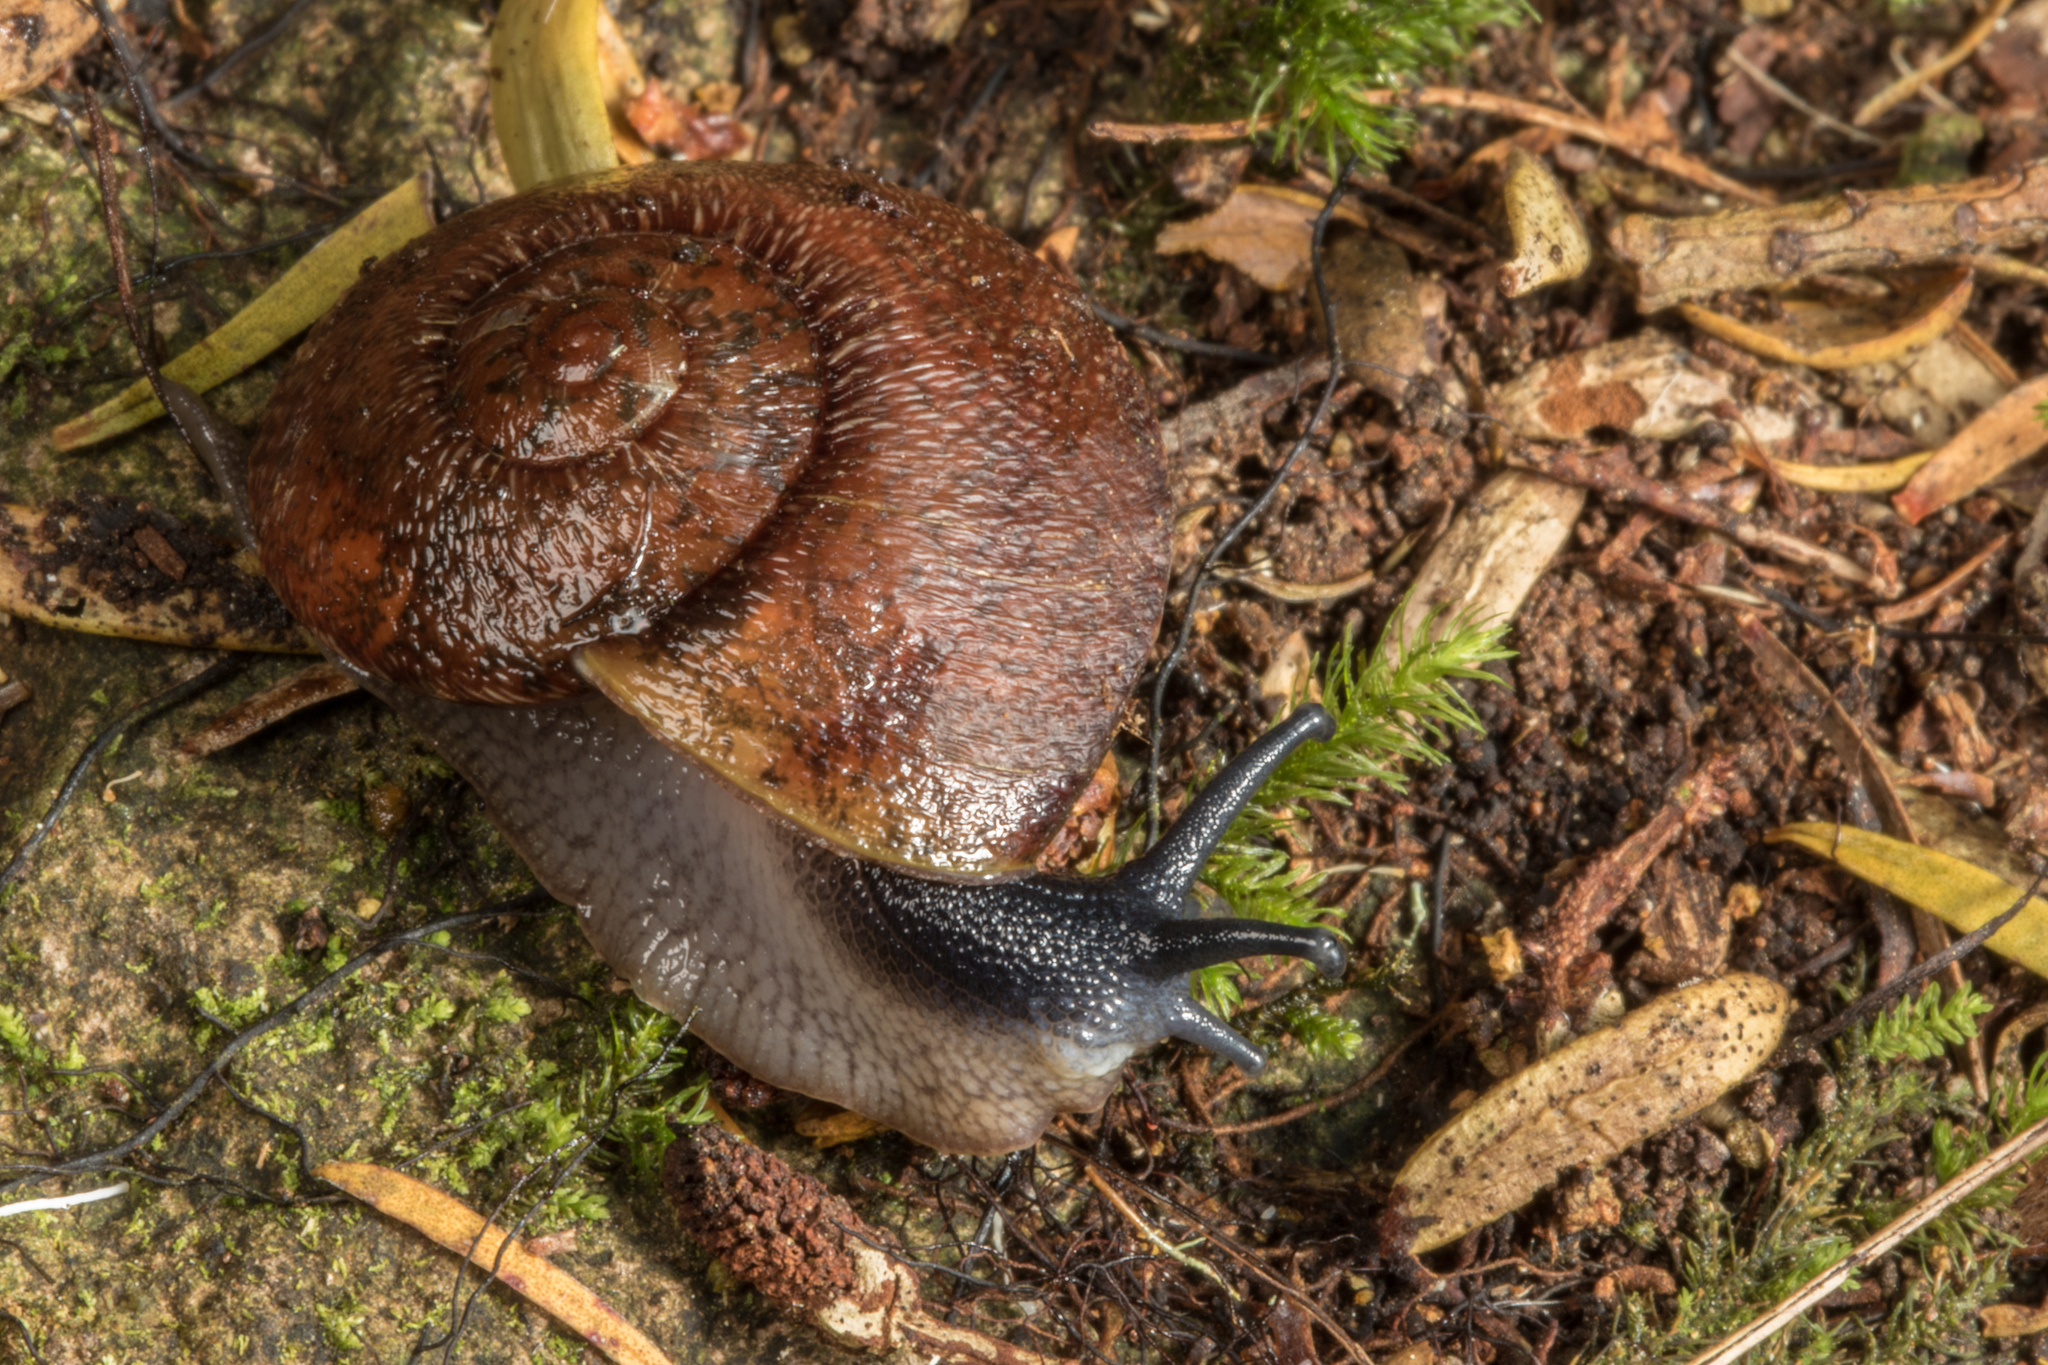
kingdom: Animalia
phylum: Mollusca
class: Gastropoda
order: Stylommatophora
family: Rhytididae
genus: Amborhytida
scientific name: Amborhytida dunniae
